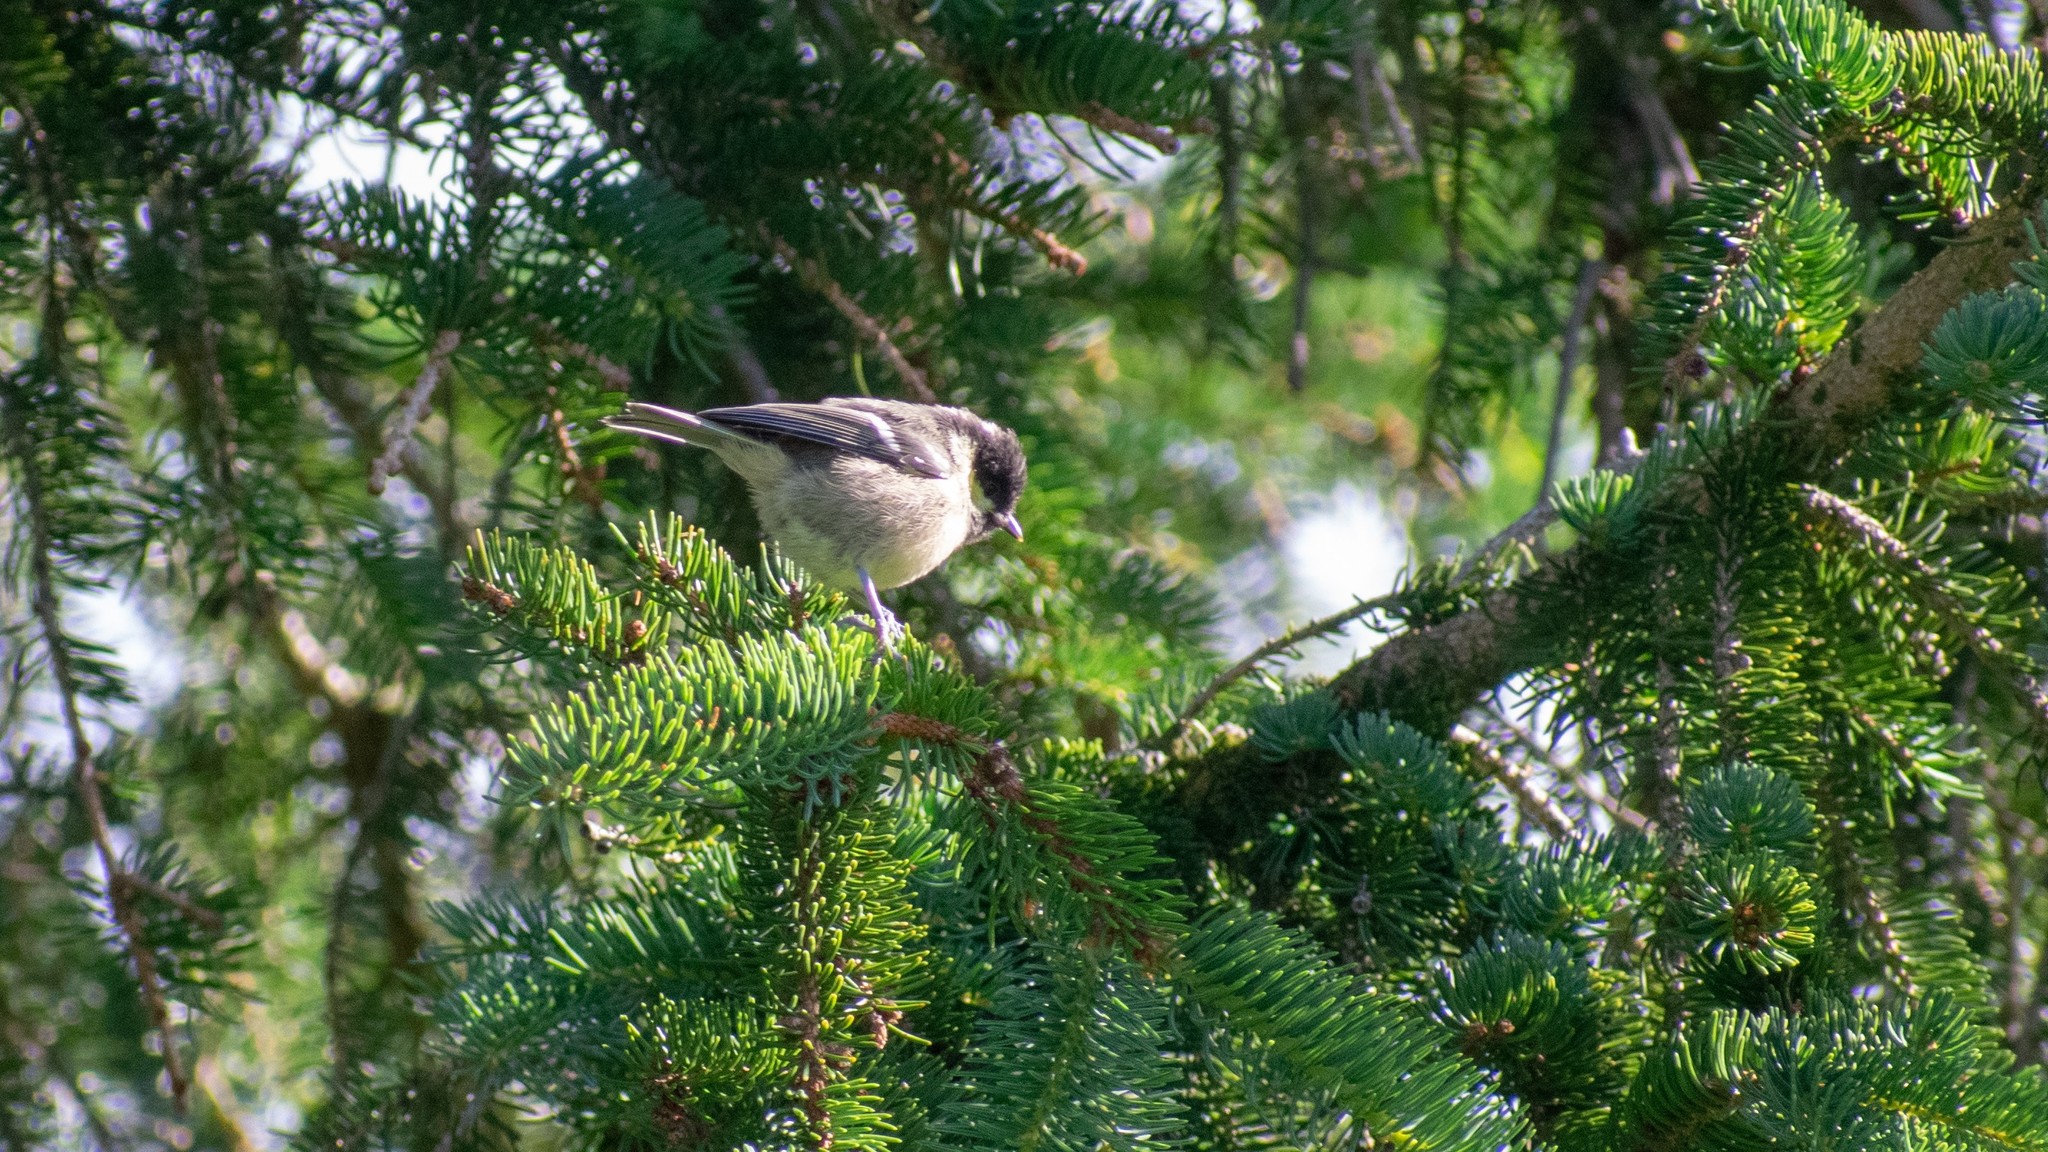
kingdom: Animalia
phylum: Chordata
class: Aves
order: Passeriformes
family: Paridae
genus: Periparus
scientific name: Periparus ater
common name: Coal tit
